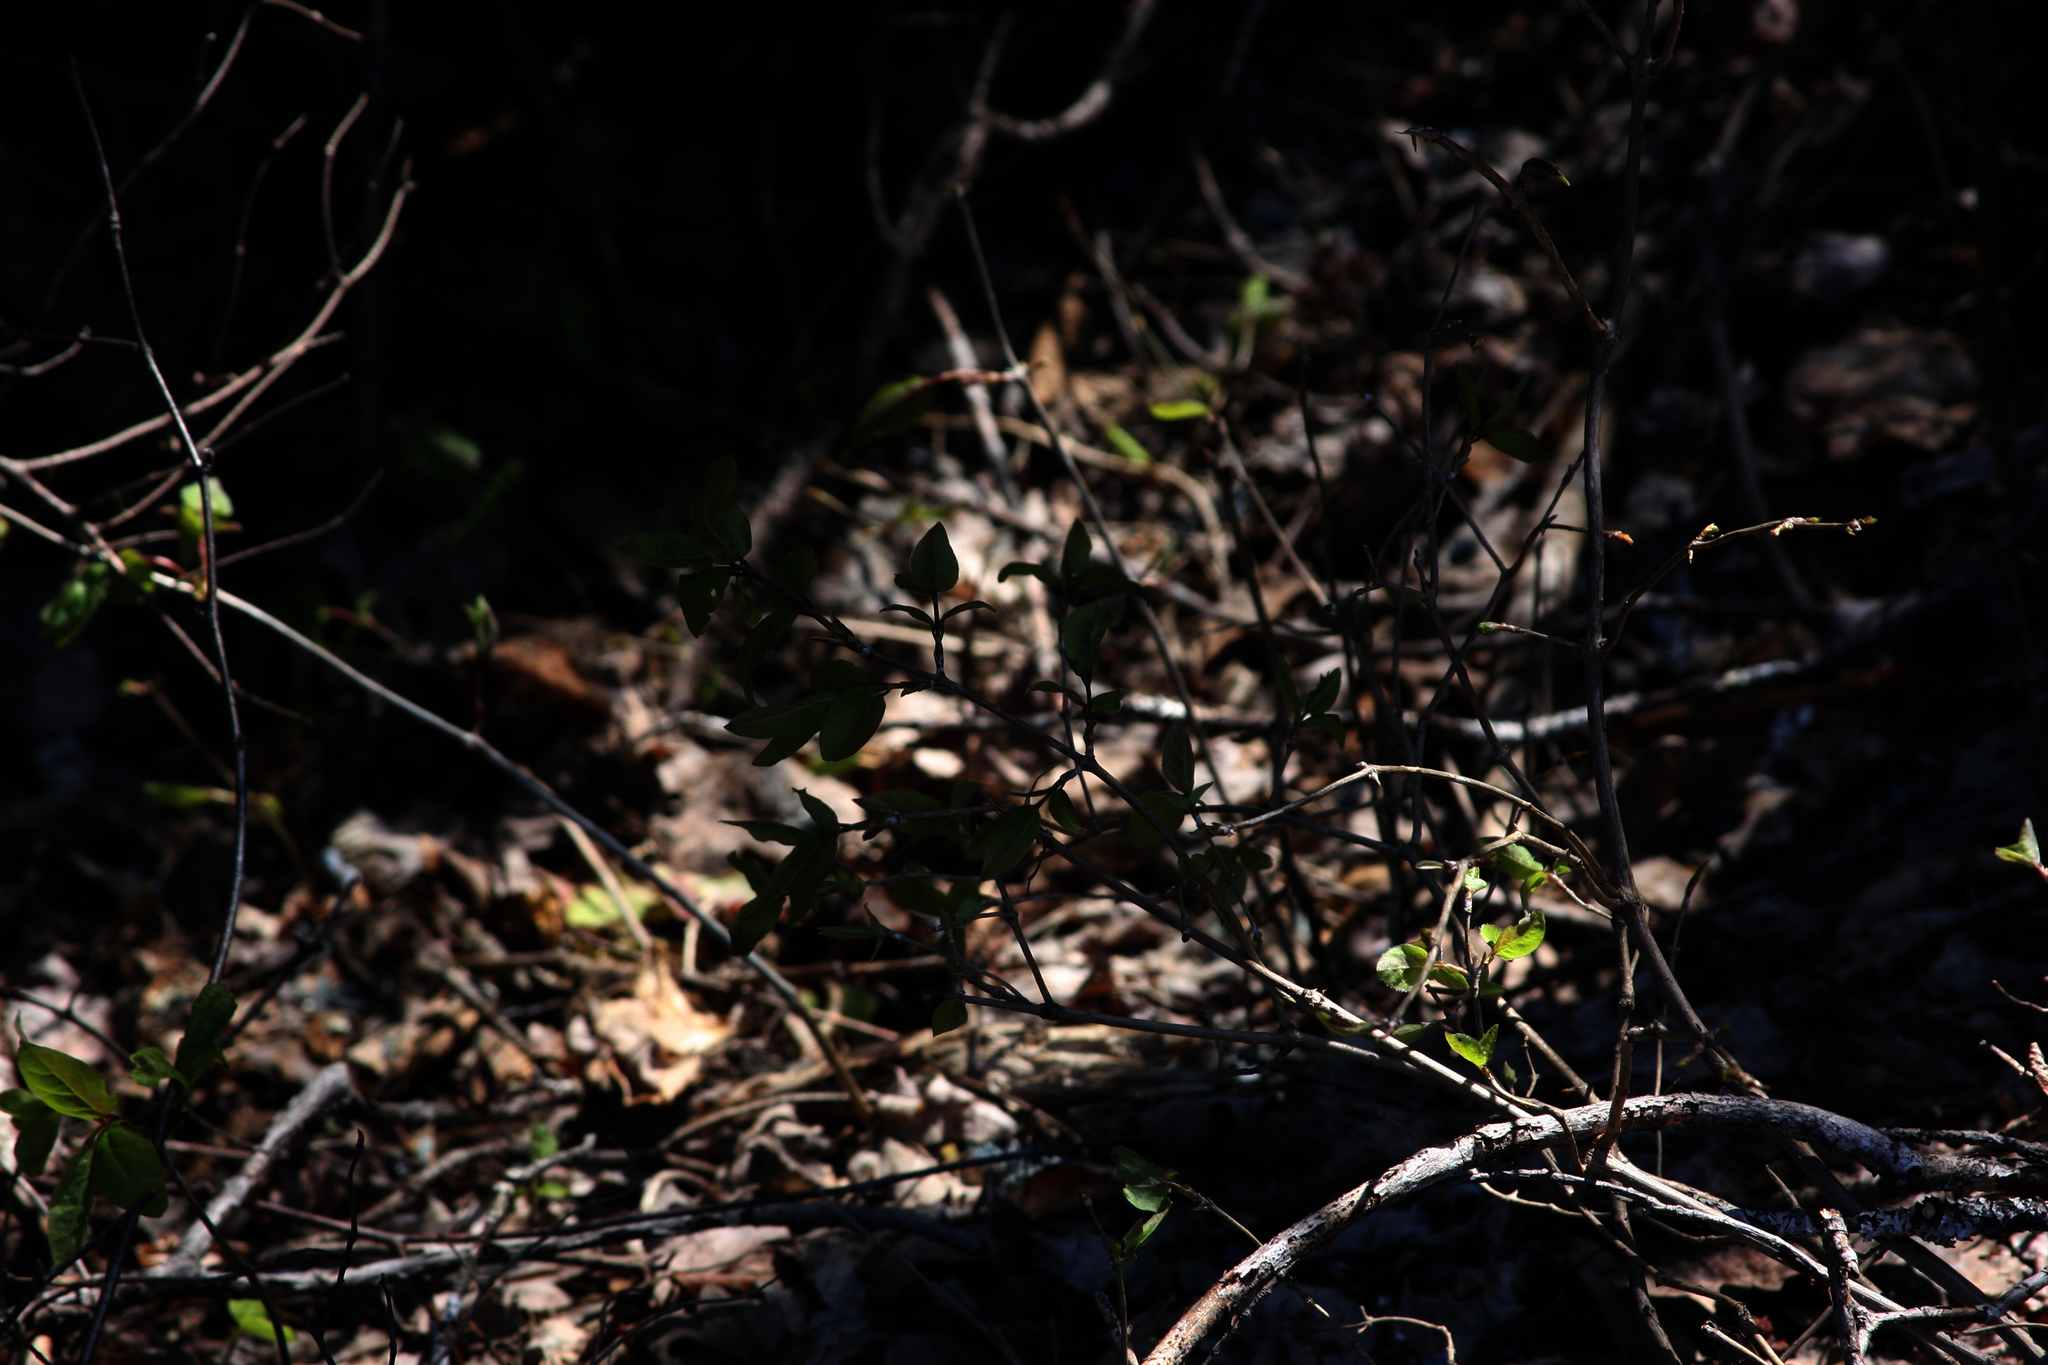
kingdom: Plantae
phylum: Tracheophyta
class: Magnoliopsida
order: Dipsacales
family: Caprifoliaceae
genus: Lonicera
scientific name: Lonicera canadensis
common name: American fly-honeysuckle
